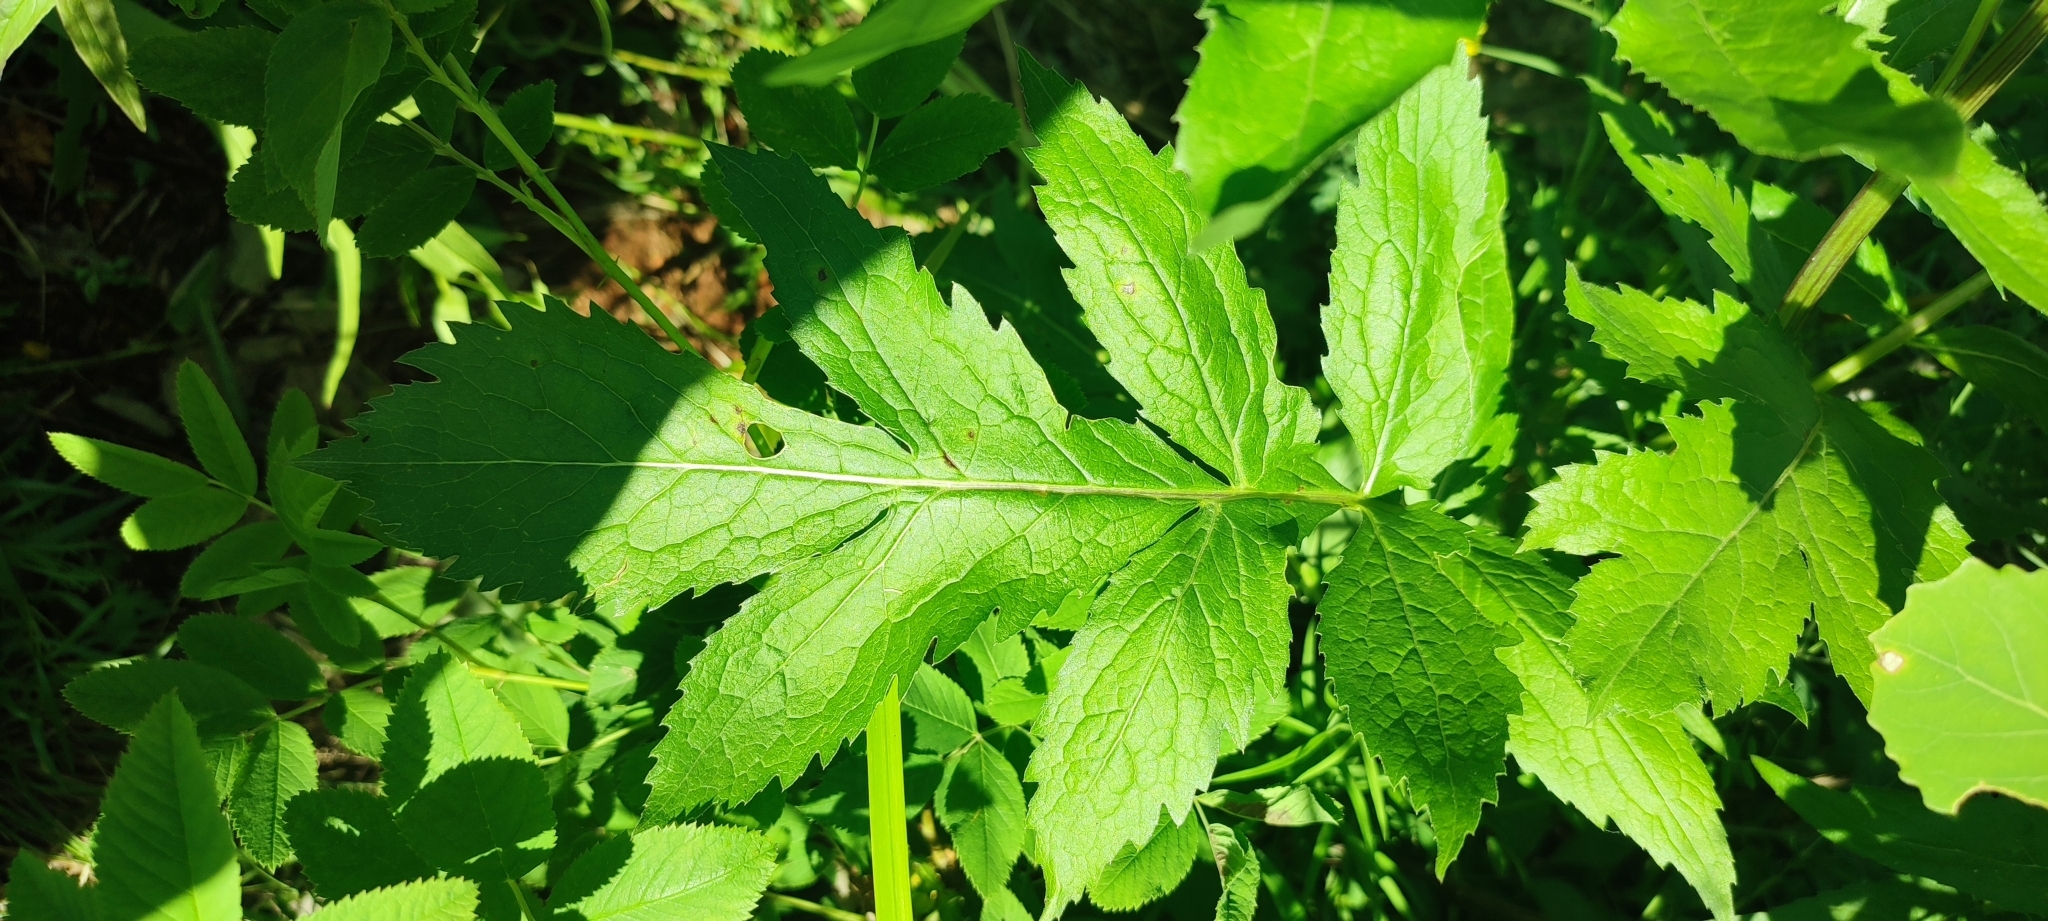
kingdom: Plantae
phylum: Tracheophyta
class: Magnoliopsida
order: Asterales
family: Asteraceae
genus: Serratula
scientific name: Serratula coronata
